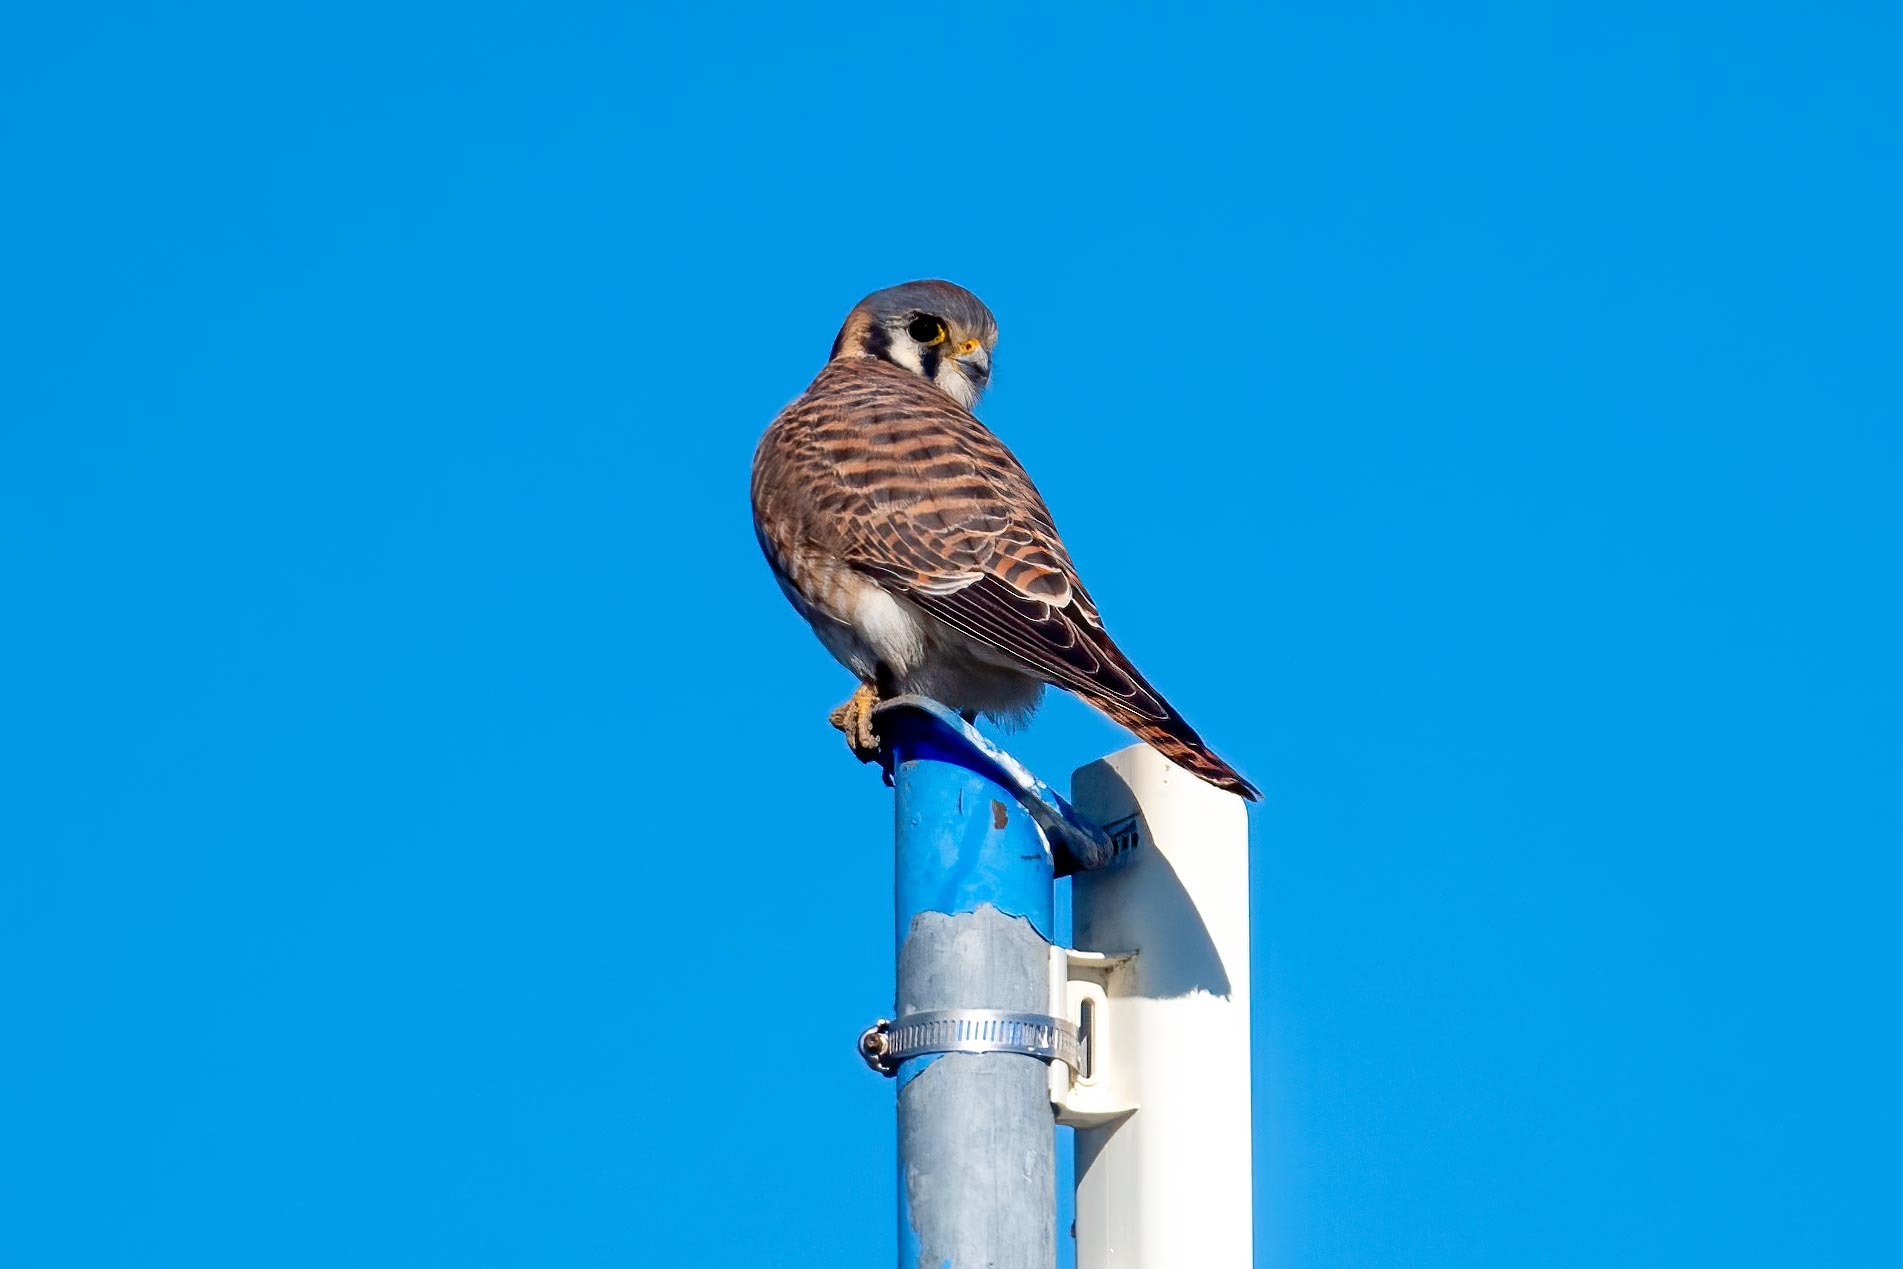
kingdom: Animalia
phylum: Chordata
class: Aves
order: Falconiformes
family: Falconidae
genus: Falco
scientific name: Falco sparverius
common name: American kestrel
